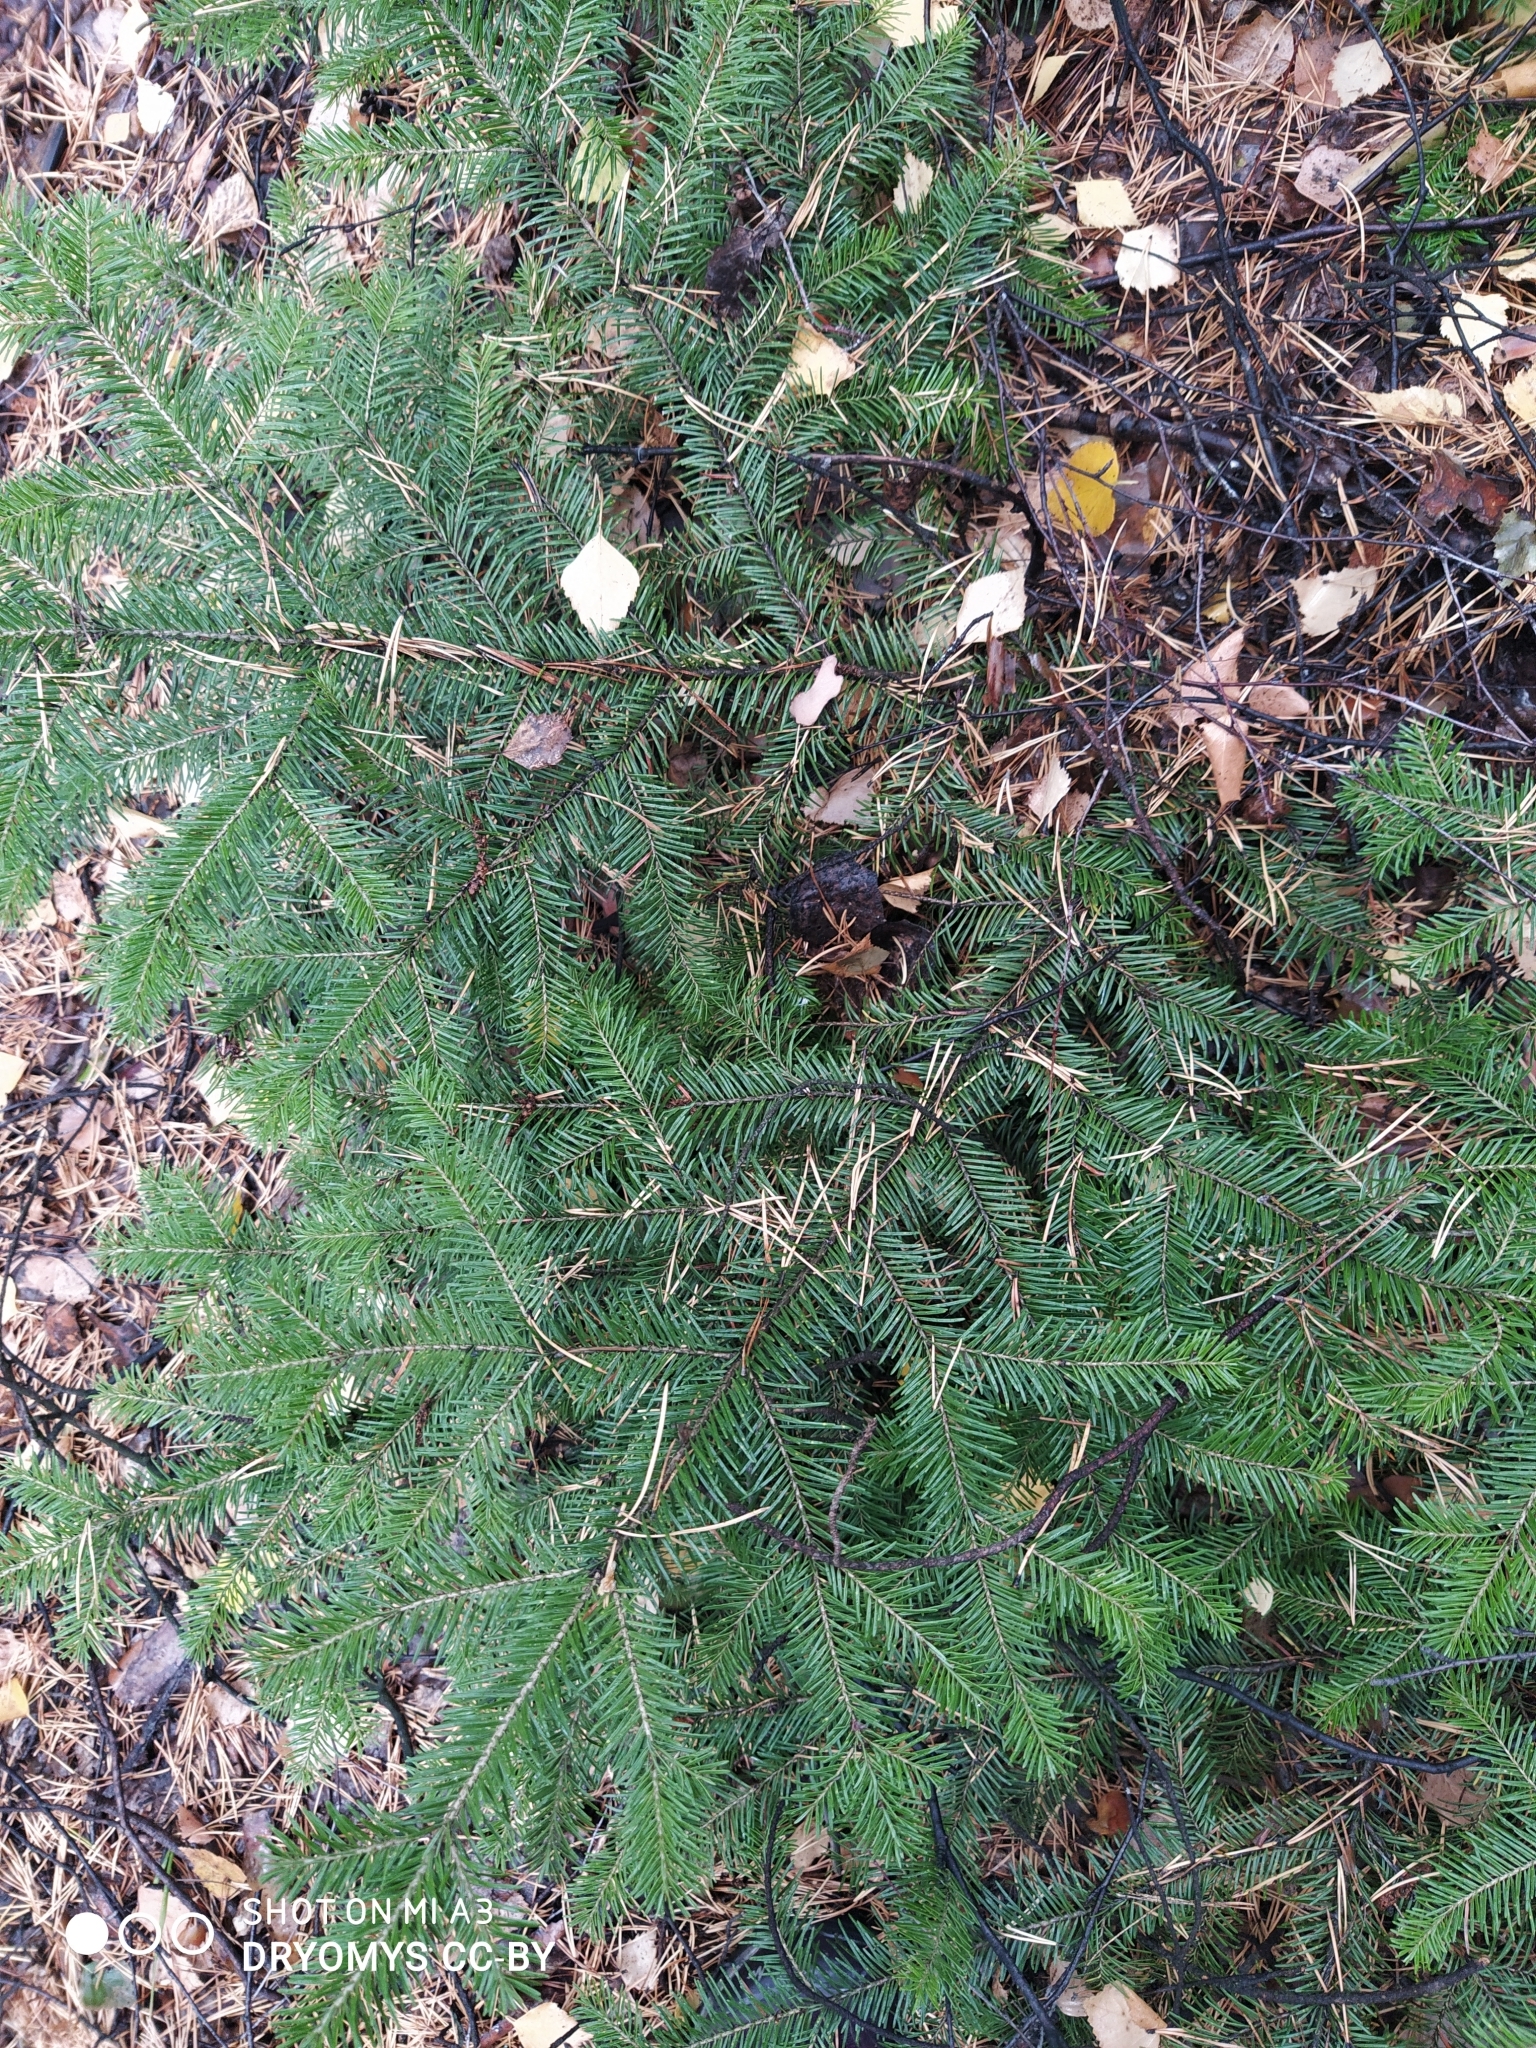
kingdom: Plantae
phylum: Tracheophyta
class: Pinopsida
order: Pinales
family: Pinaceae
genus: Abies
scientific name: Abies sibirica
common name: Siberian fir
